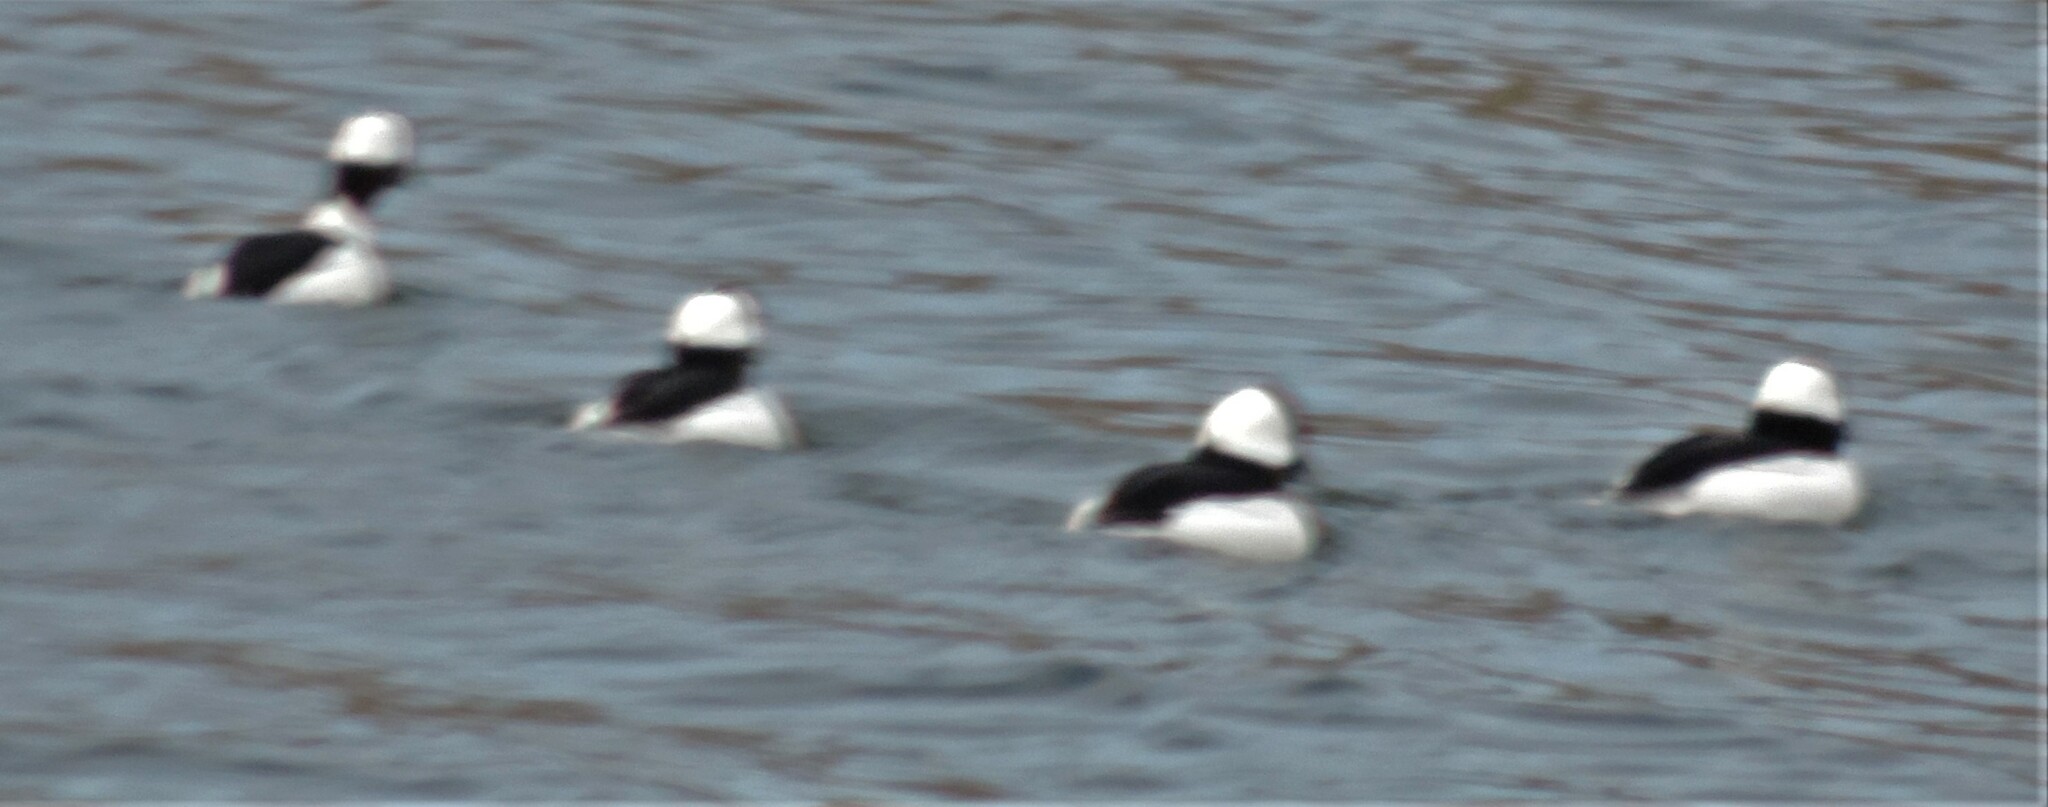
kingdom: Animalia
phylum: Chordata
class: Aves
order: Anseriformes
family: Anatidae
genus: Bucephala
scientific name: Bucephala albeola
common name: Bufflehead
